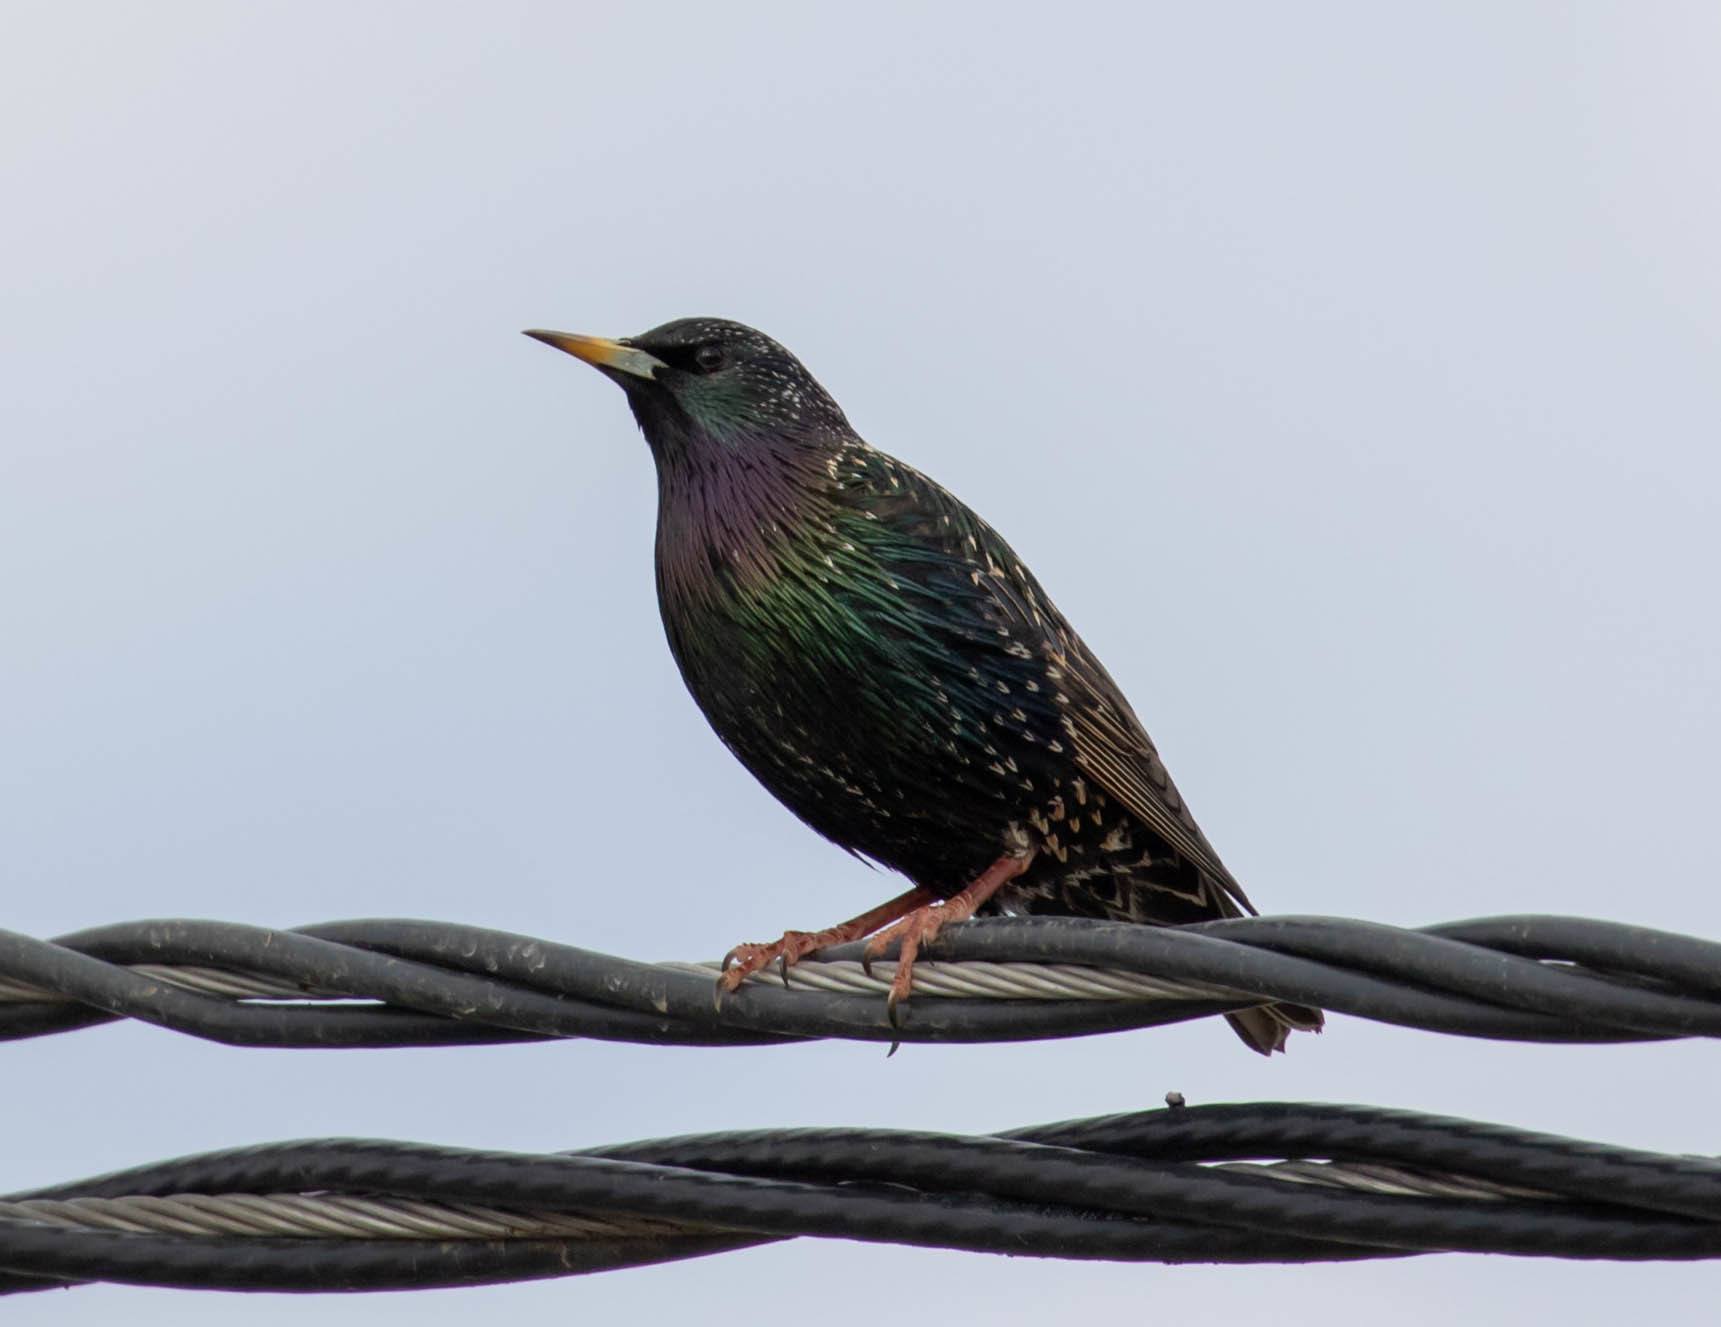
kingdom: Animalia
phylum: Chordata
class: Aves
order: Passeriformes
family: Sturnidae
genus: Sturnus
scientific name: Sturnus vulgaris
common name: Common starling
